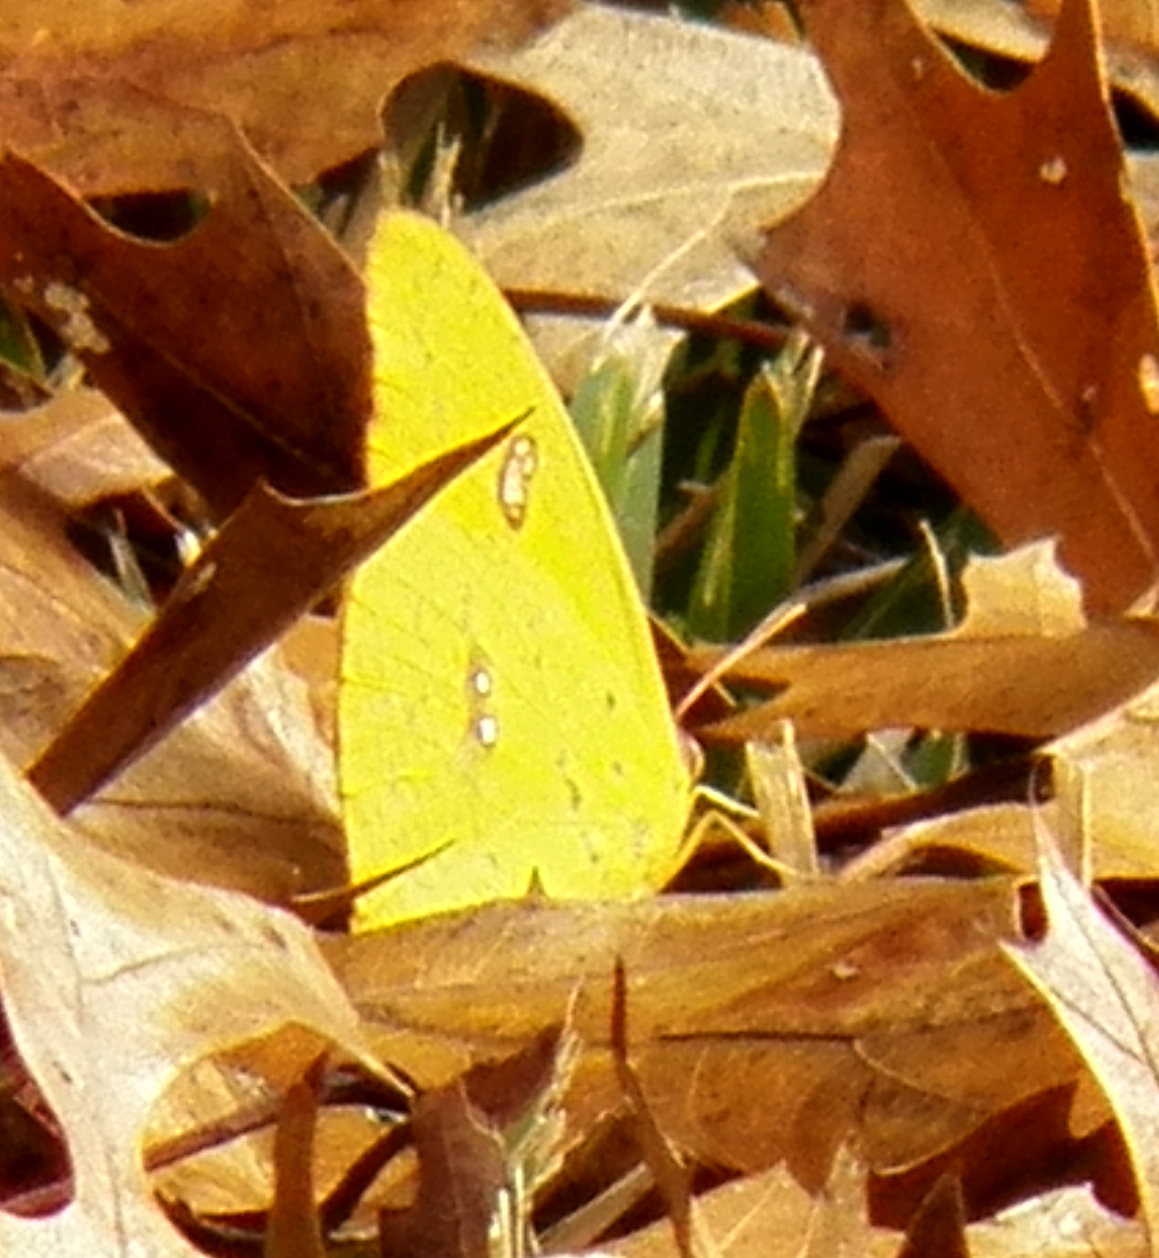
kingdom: Animalia
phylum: Arthropoda
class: Insecta
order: Lepidoptera
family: Pieridae
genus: Phoebis
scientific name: Phoebis sennae
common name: Cloudless sulphur
